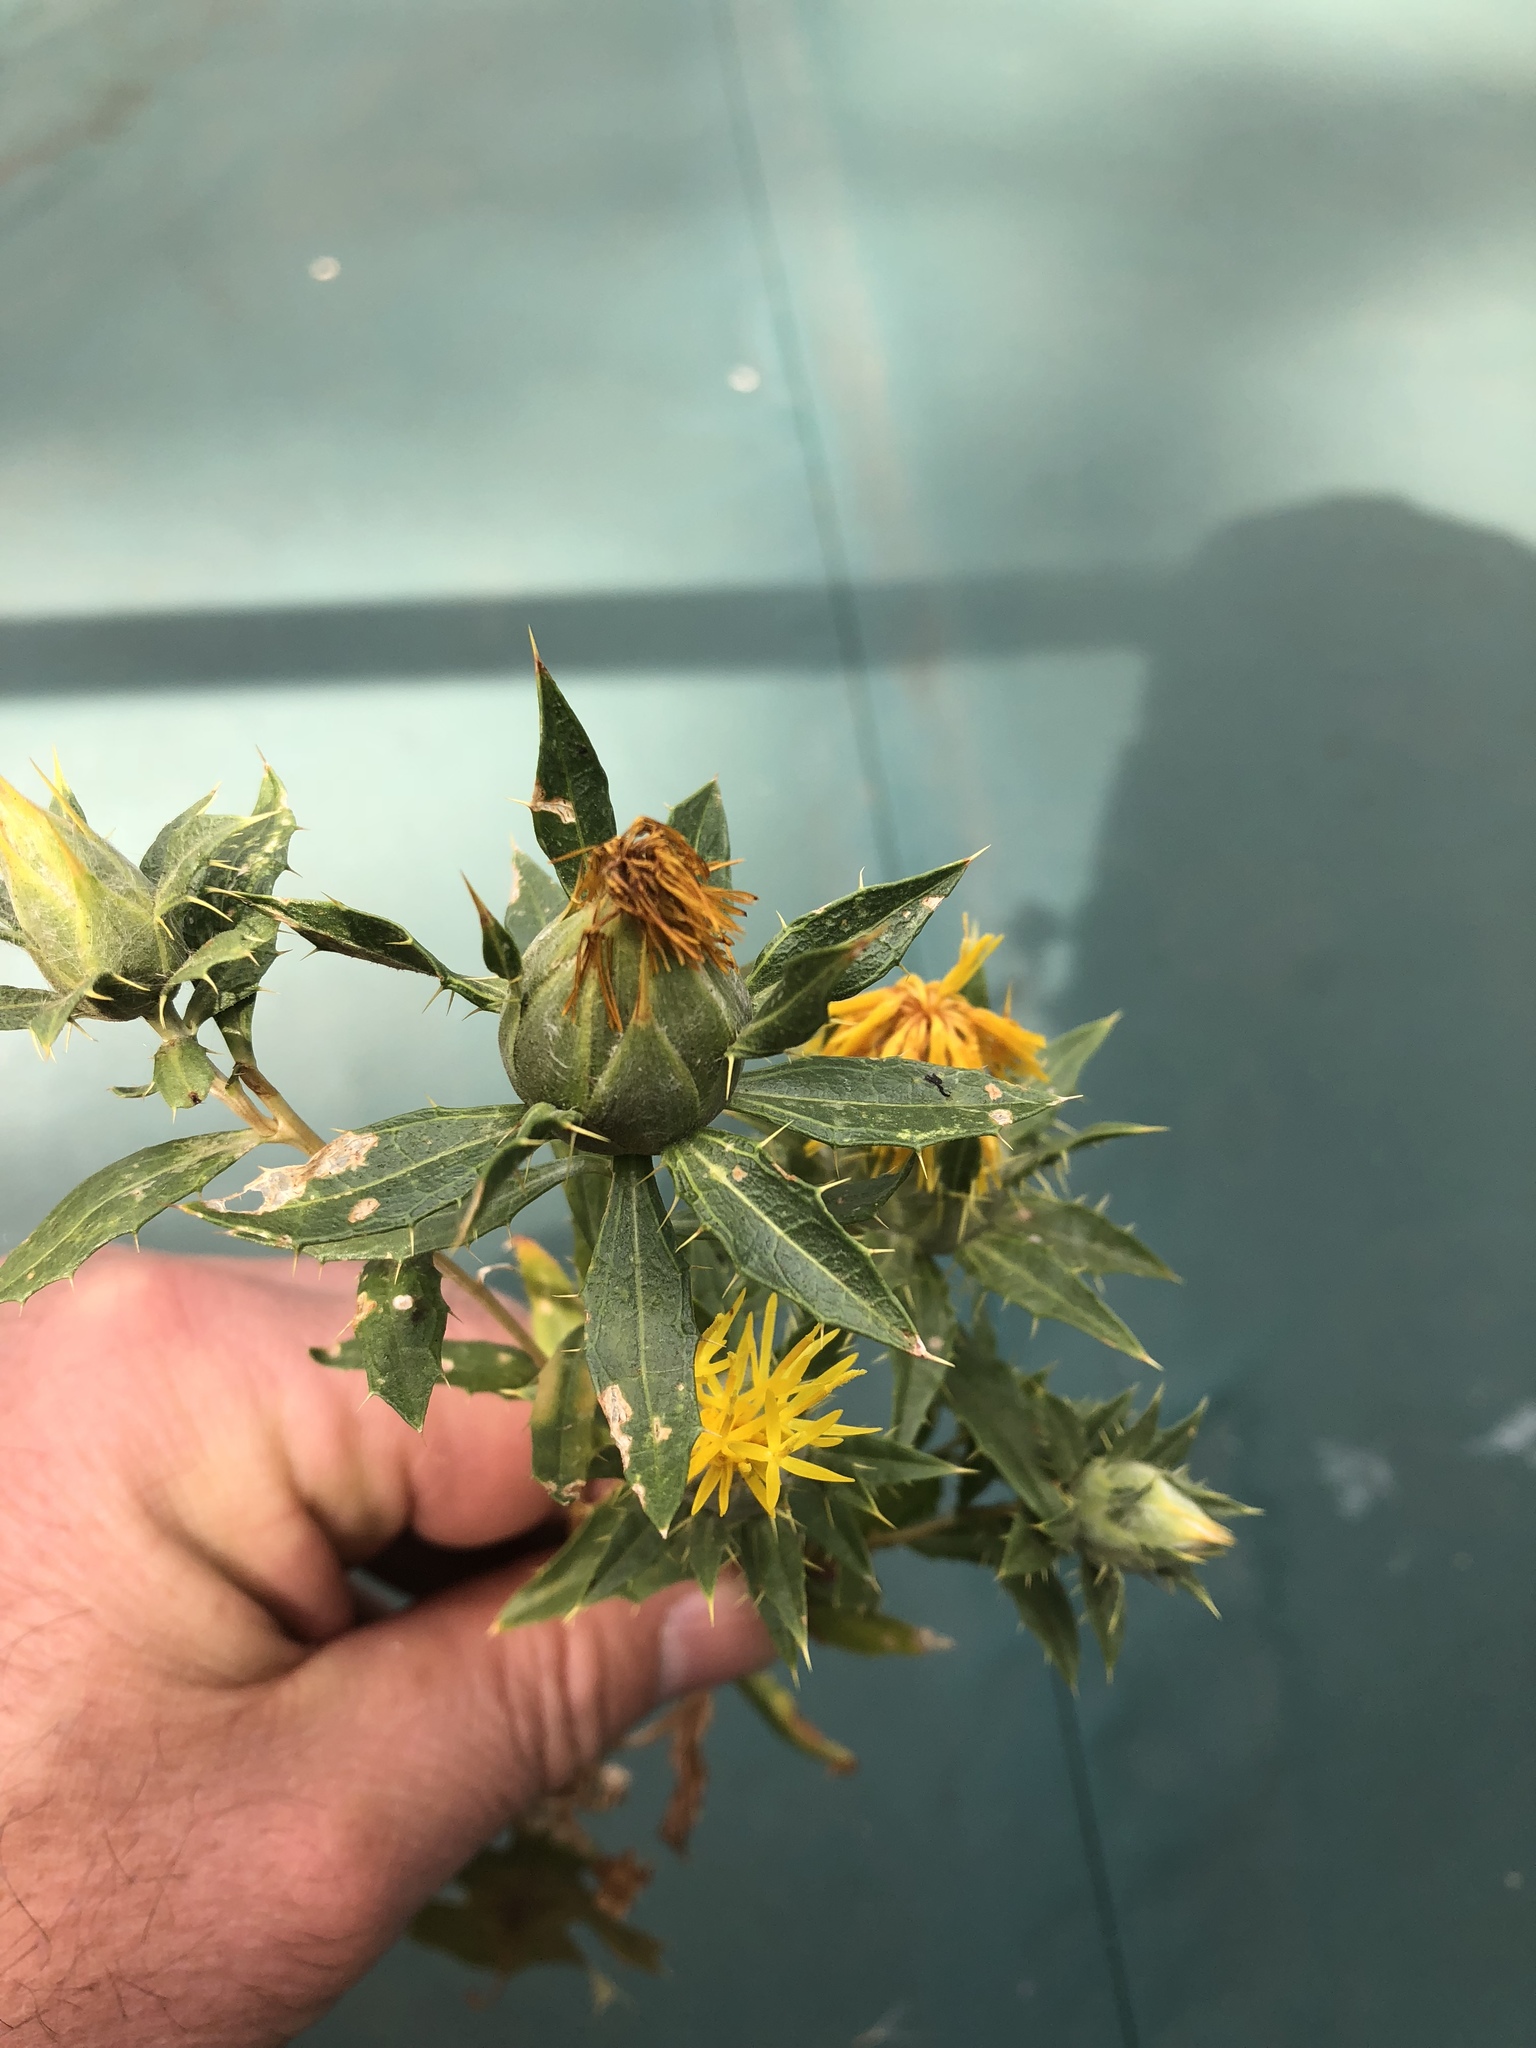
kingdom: Plantae
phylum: Tracheophyta
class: Magnoliopsida
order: Asterales
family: Asteraceae
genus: Carthamus
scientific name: Carthamus tinctorius
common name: Safflower
